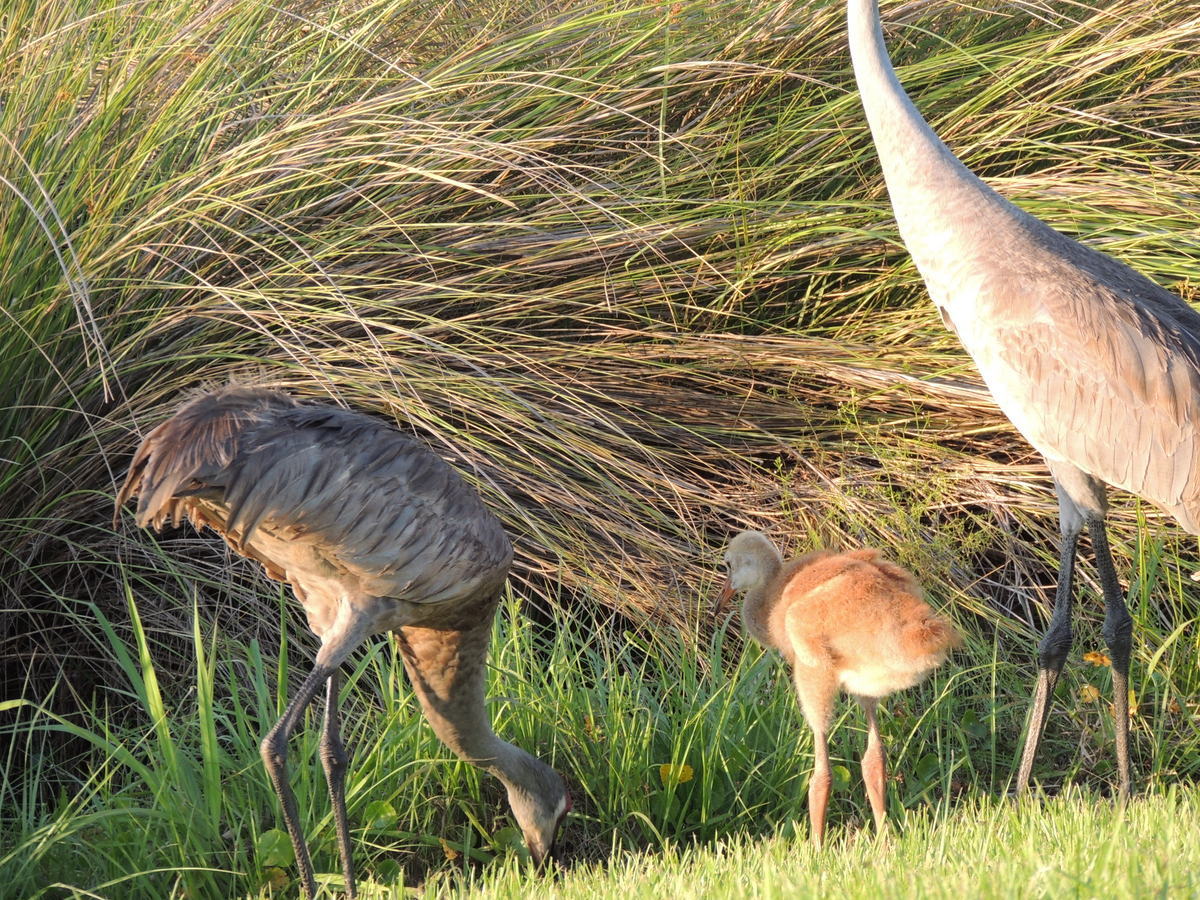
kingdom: Animalia
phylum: Chordata
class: Aves
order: Gruiformes
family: Gruidae
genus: Grus
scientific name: Grus canadensis
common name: Sandhill crane
